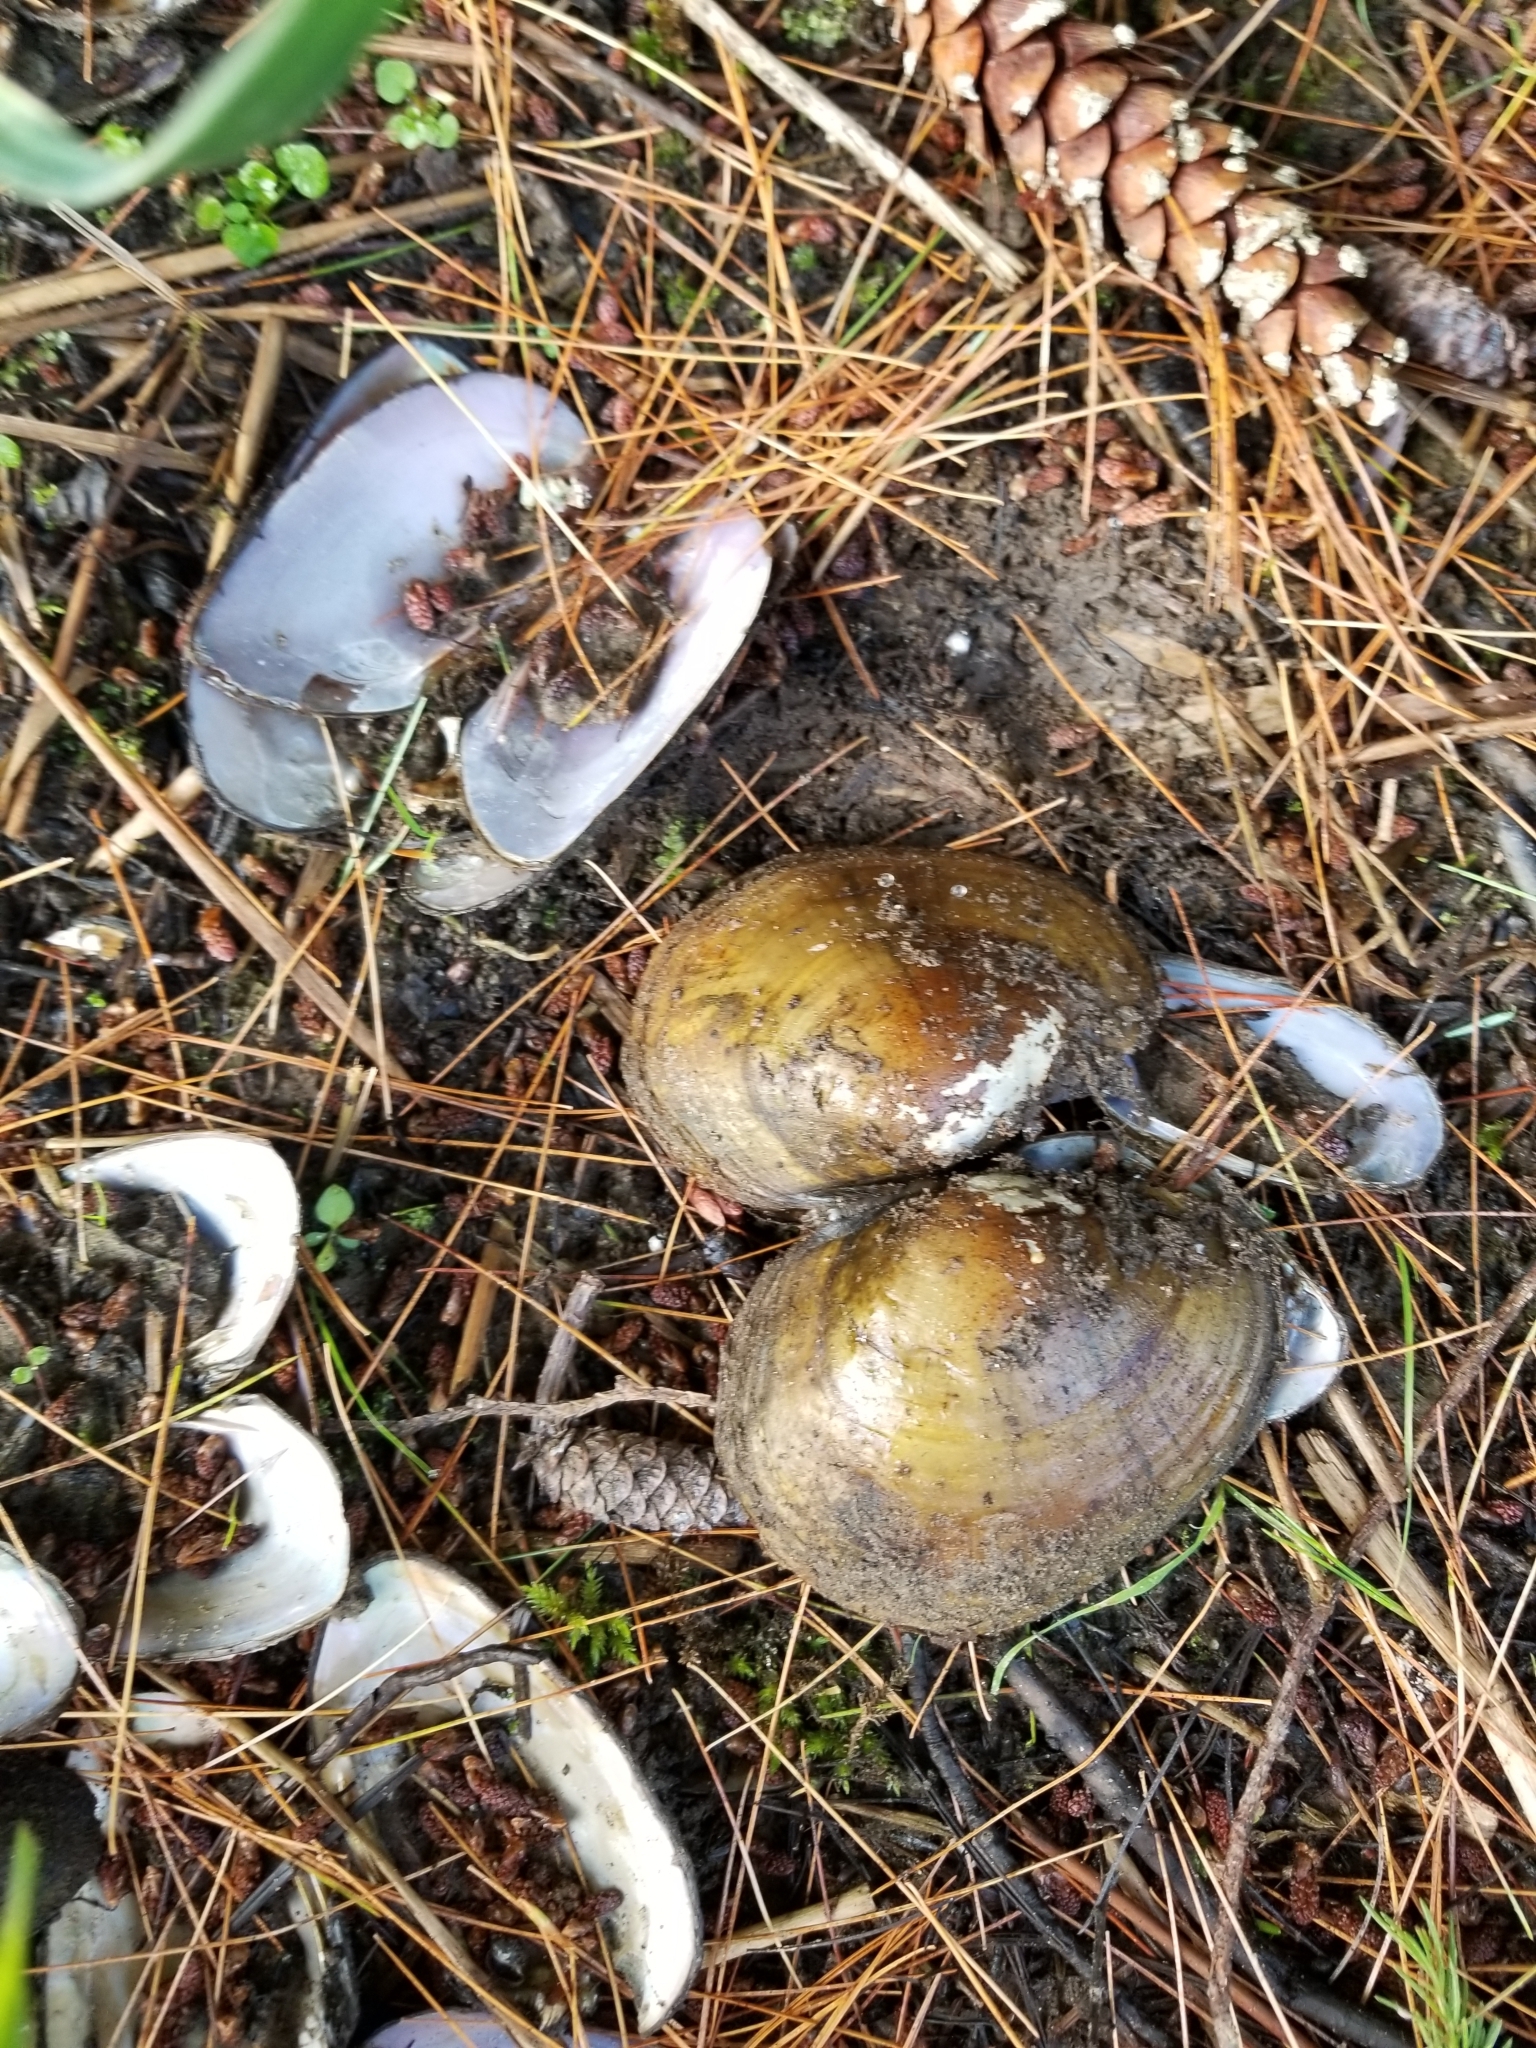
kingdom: Animalia
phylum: Mollusca
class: Bivalvia
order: Unionida
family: Unionidae
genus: Lampsilis
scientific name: Lampsilis cardium
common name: Plain pocketbook
